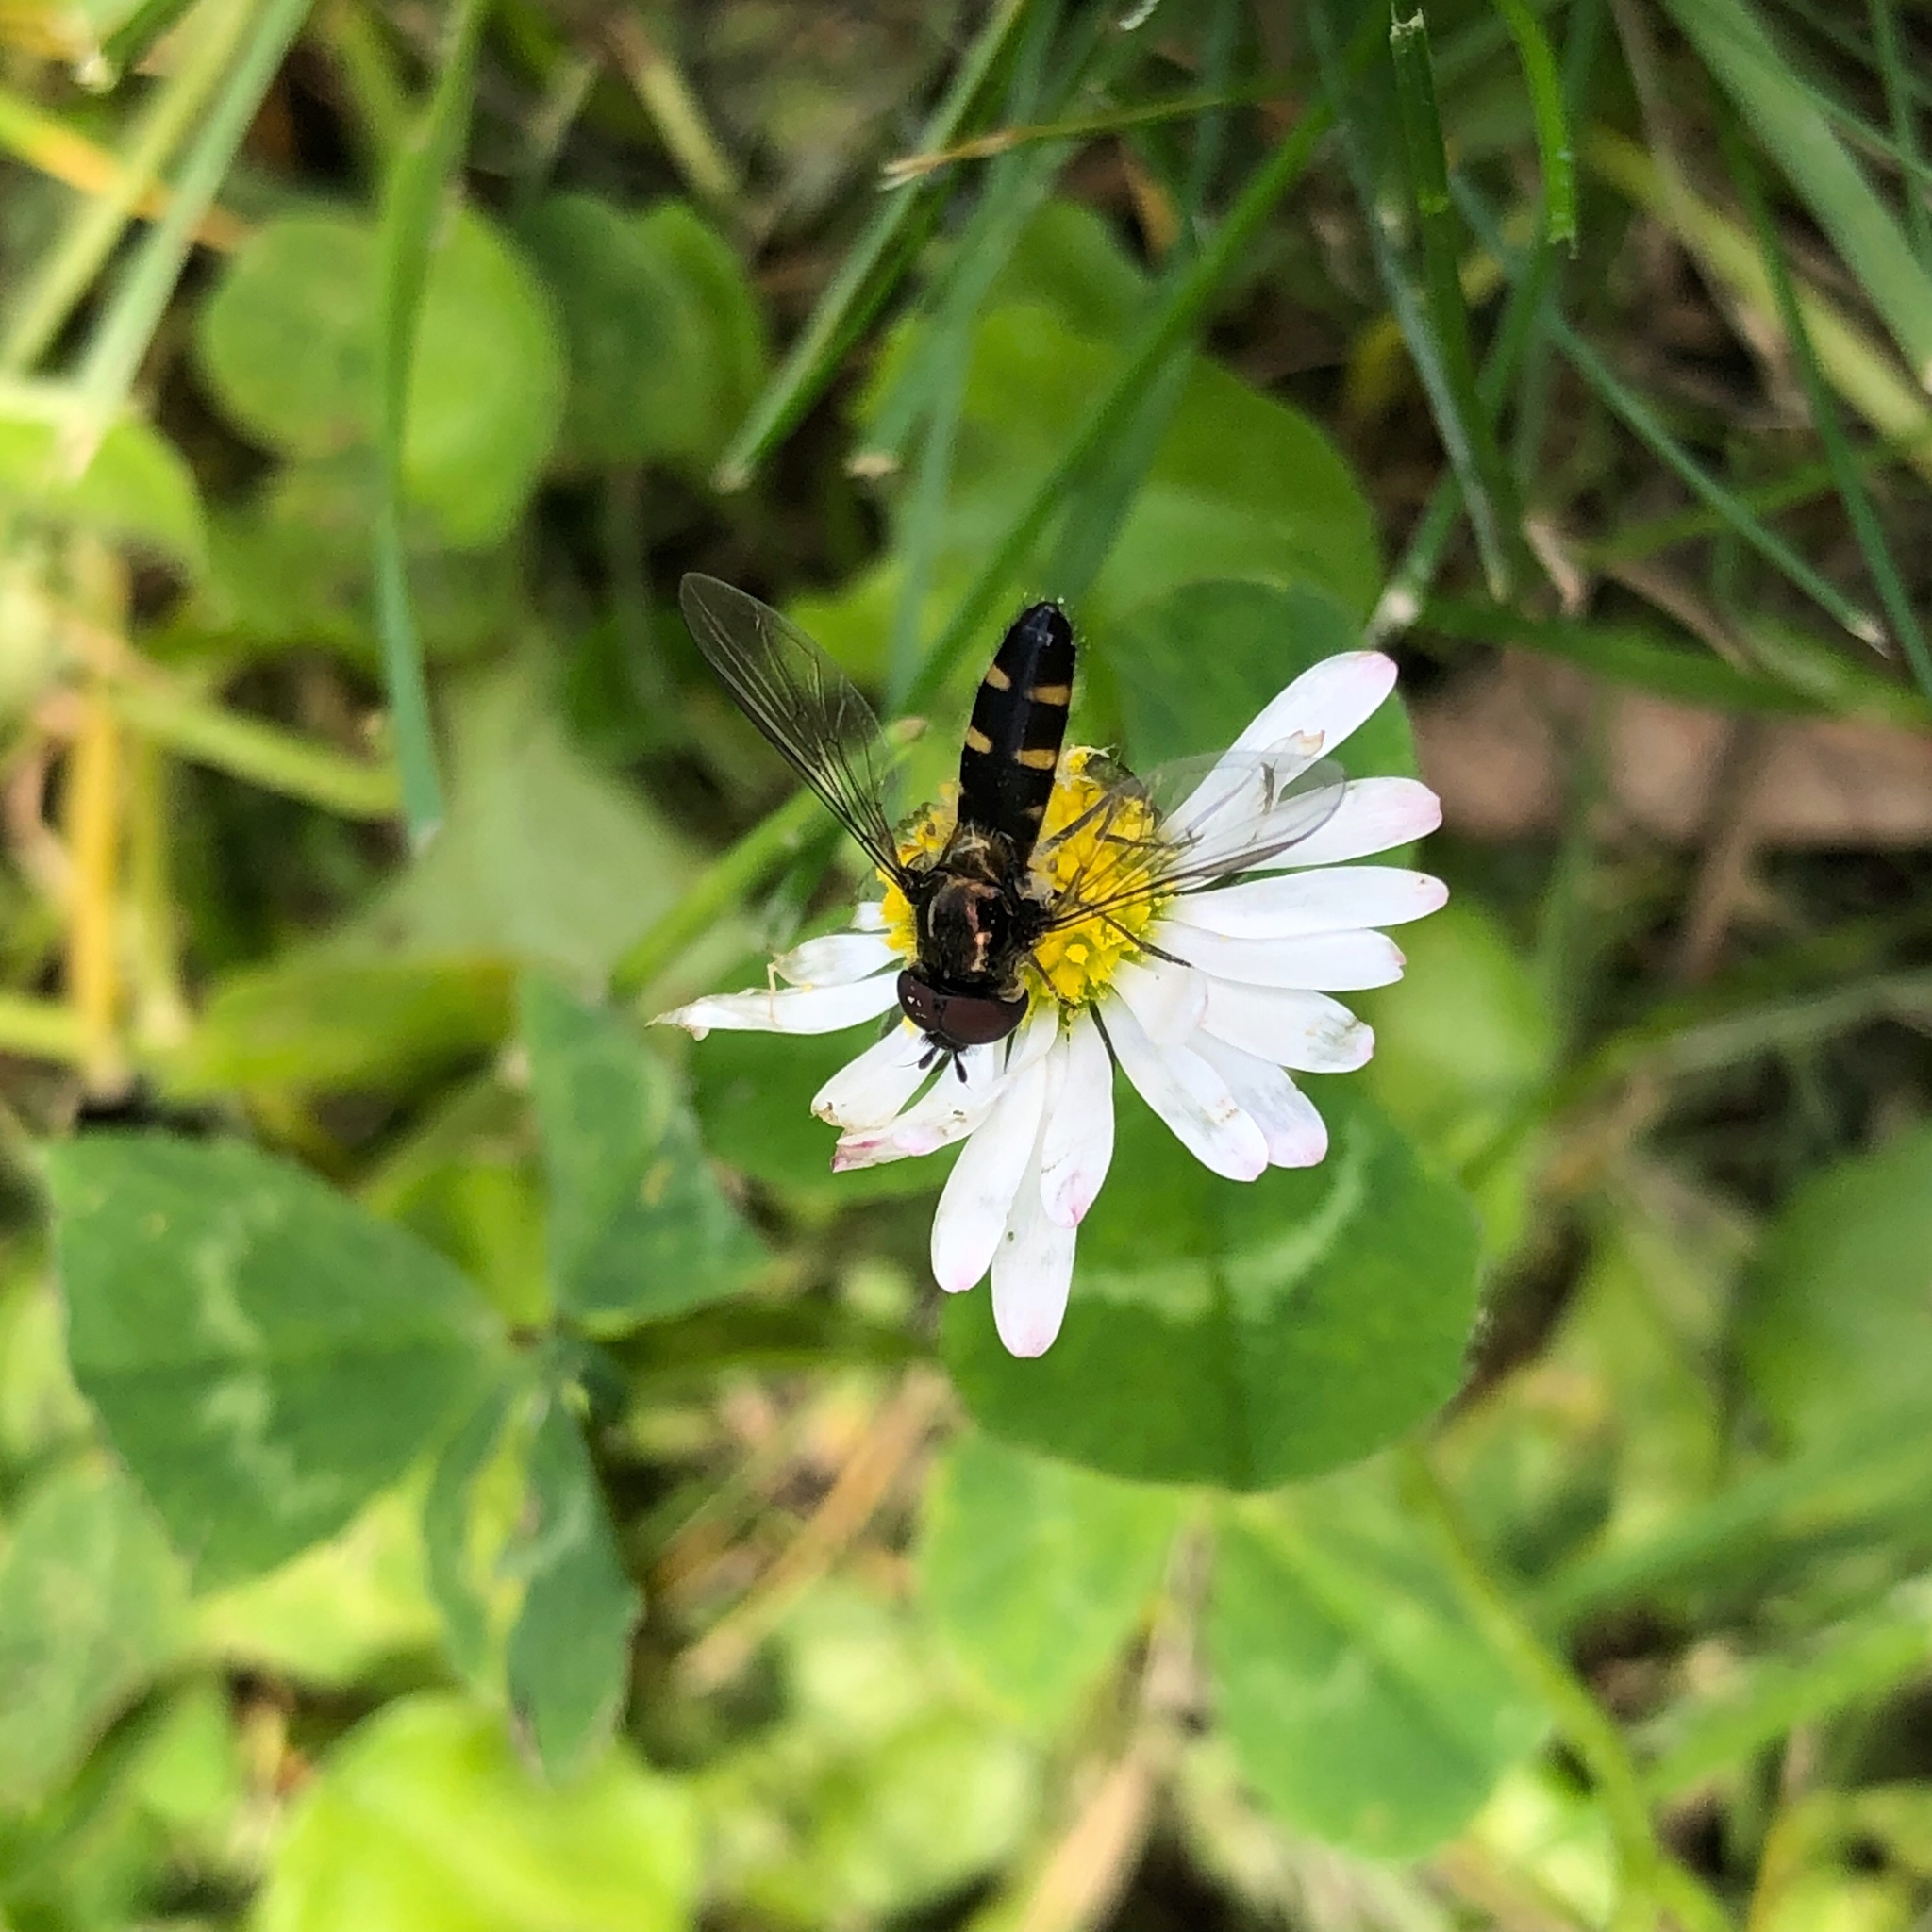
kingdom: Animalia
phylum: Arthropoda
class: Insecta
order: Diptera
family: Syrphidae
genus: Melangyna
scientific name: Melangyna novaezelandiae
